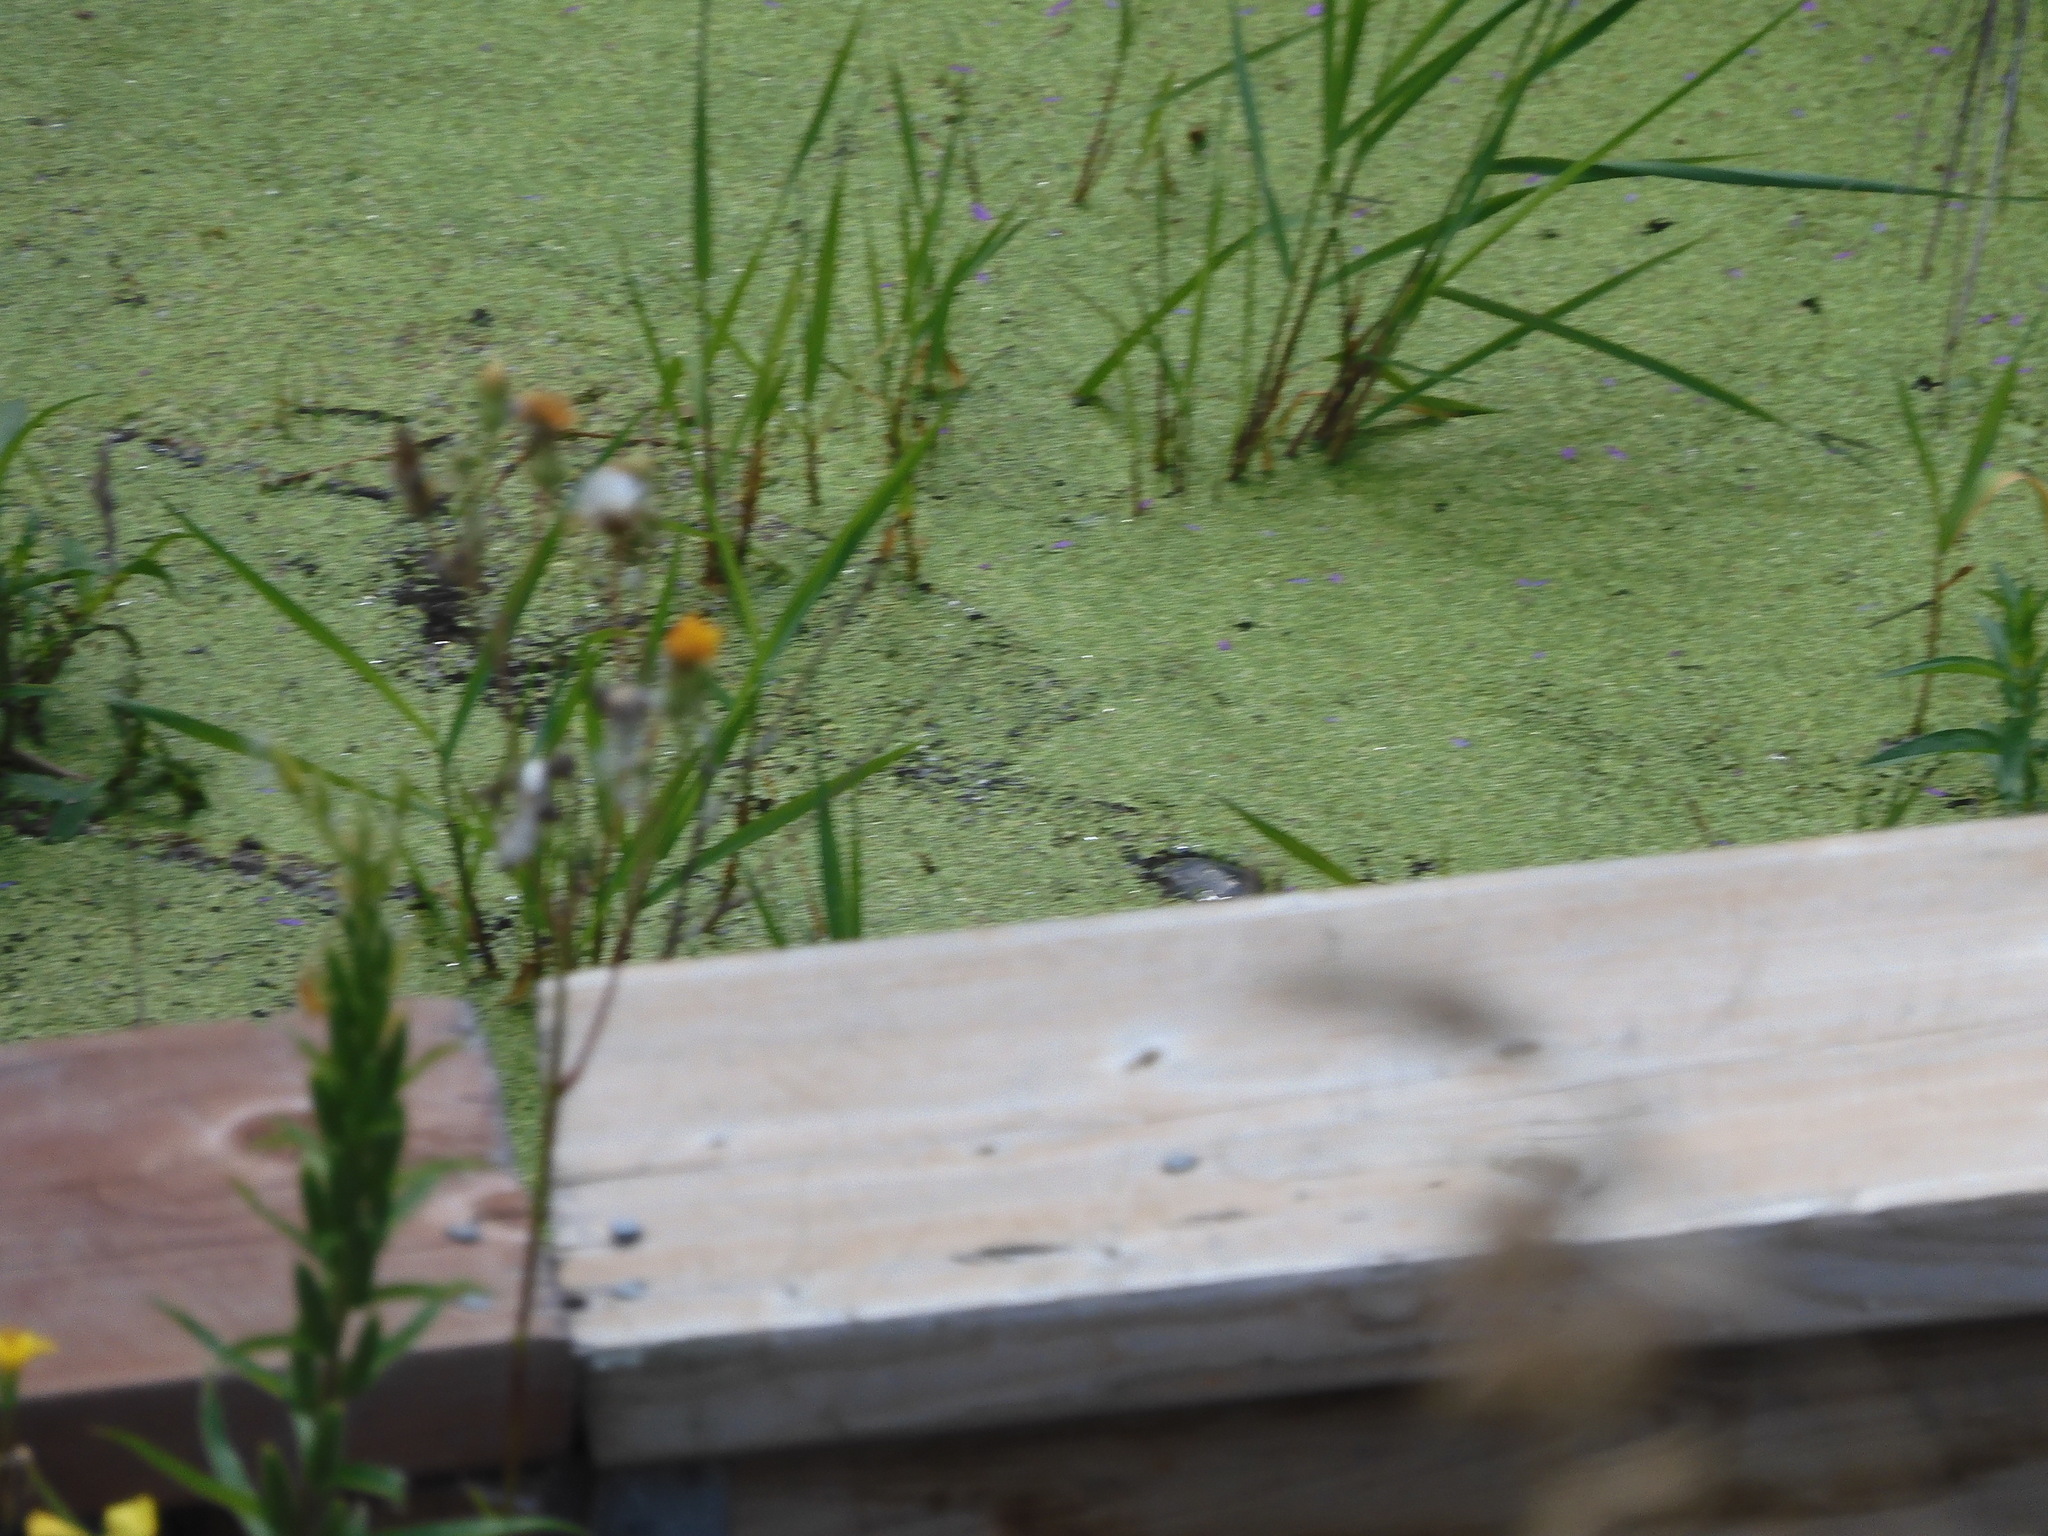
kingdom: Animalia
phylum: Chordata
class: Testudines
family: Emydidae
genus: Chrysemys
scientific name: Chrysemys picta
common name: Painted turtle
